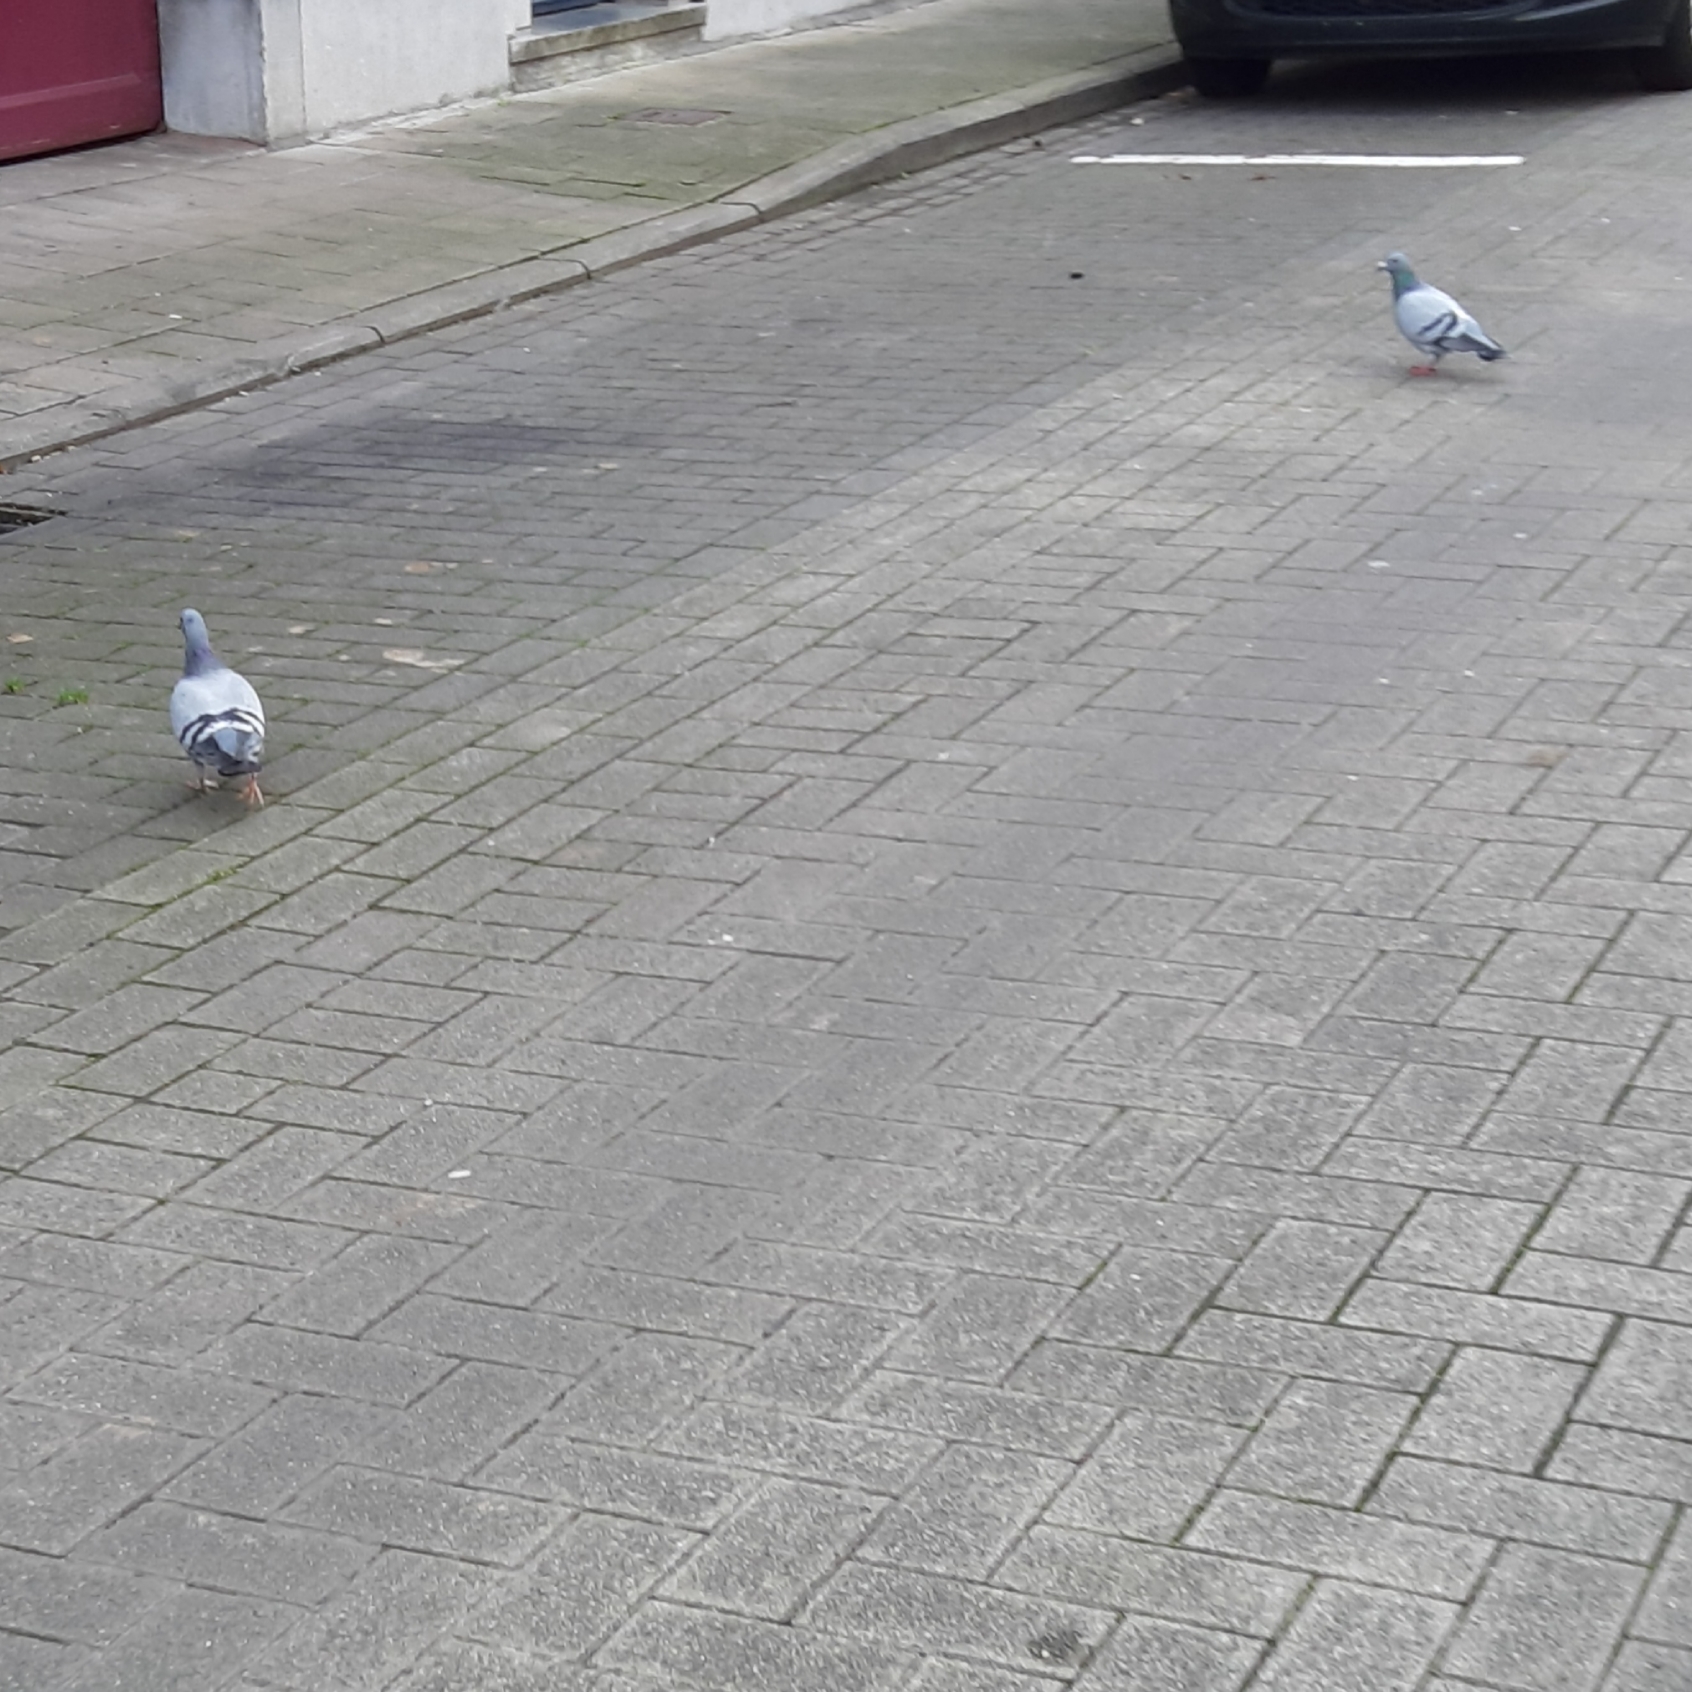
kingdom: Animalia
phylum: Chordata
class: Aves
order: Columbiformes
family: Columbidae
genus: Columba
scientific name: Columba livia
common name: Rock pigeon
